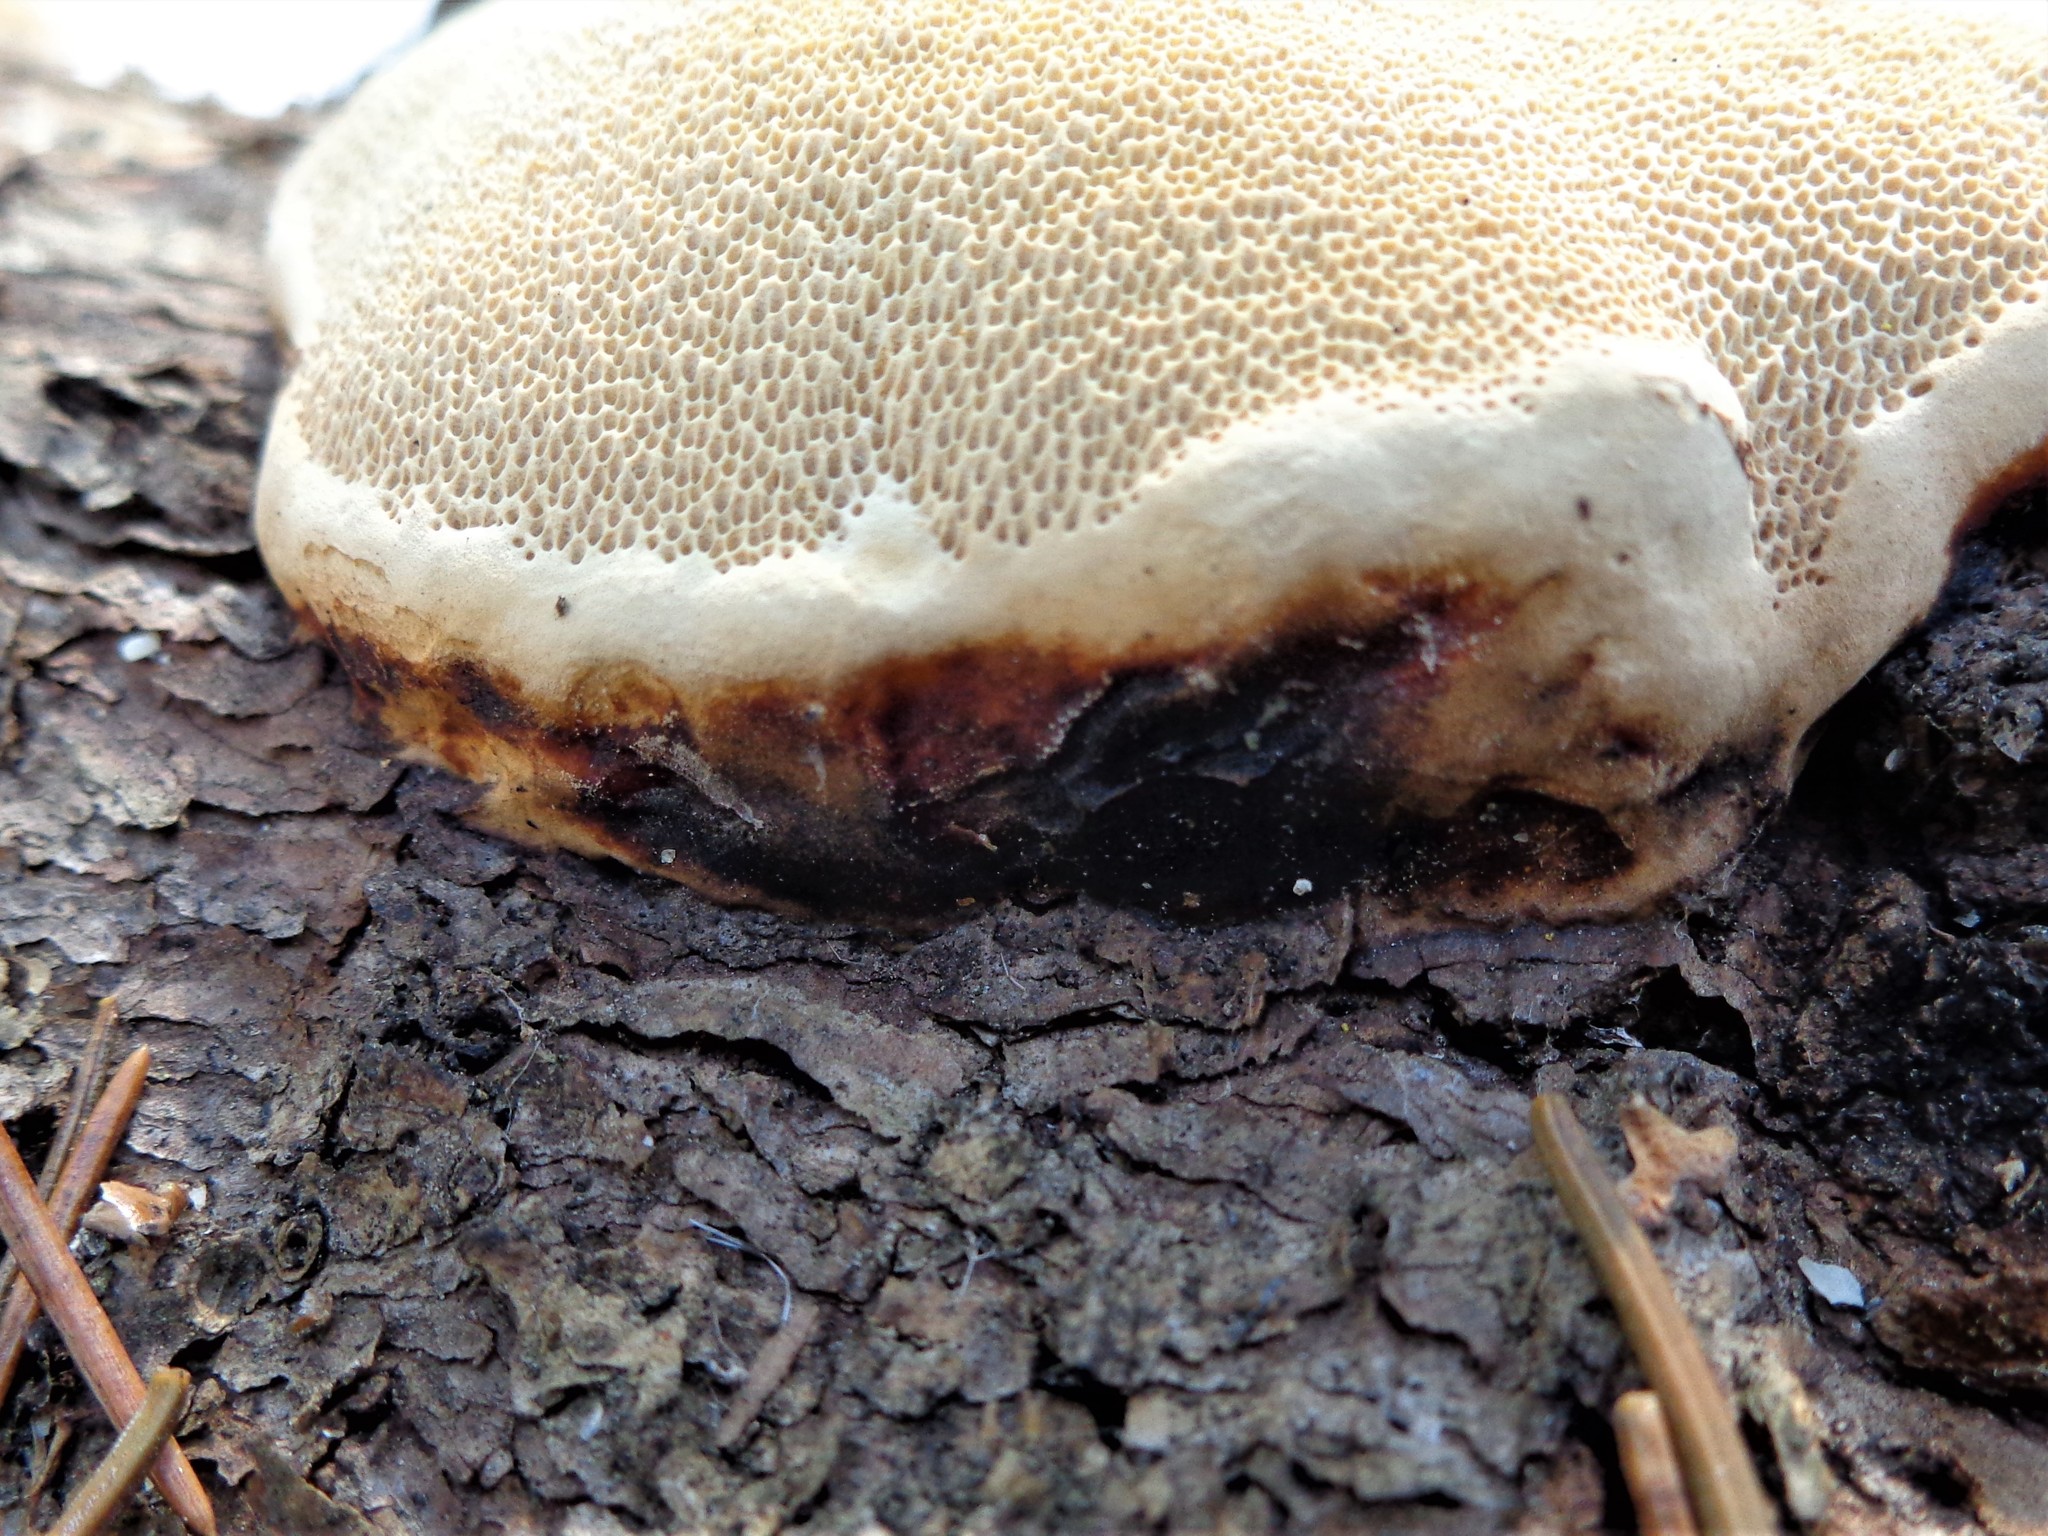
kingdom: Fungi
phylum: Basidiomycota
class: Agaricomycetes
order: Polyporales
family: Fomitopsidaceae
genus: Fomitopsis
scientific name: Fomitopsis pinicola
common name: Red-belted bracket
